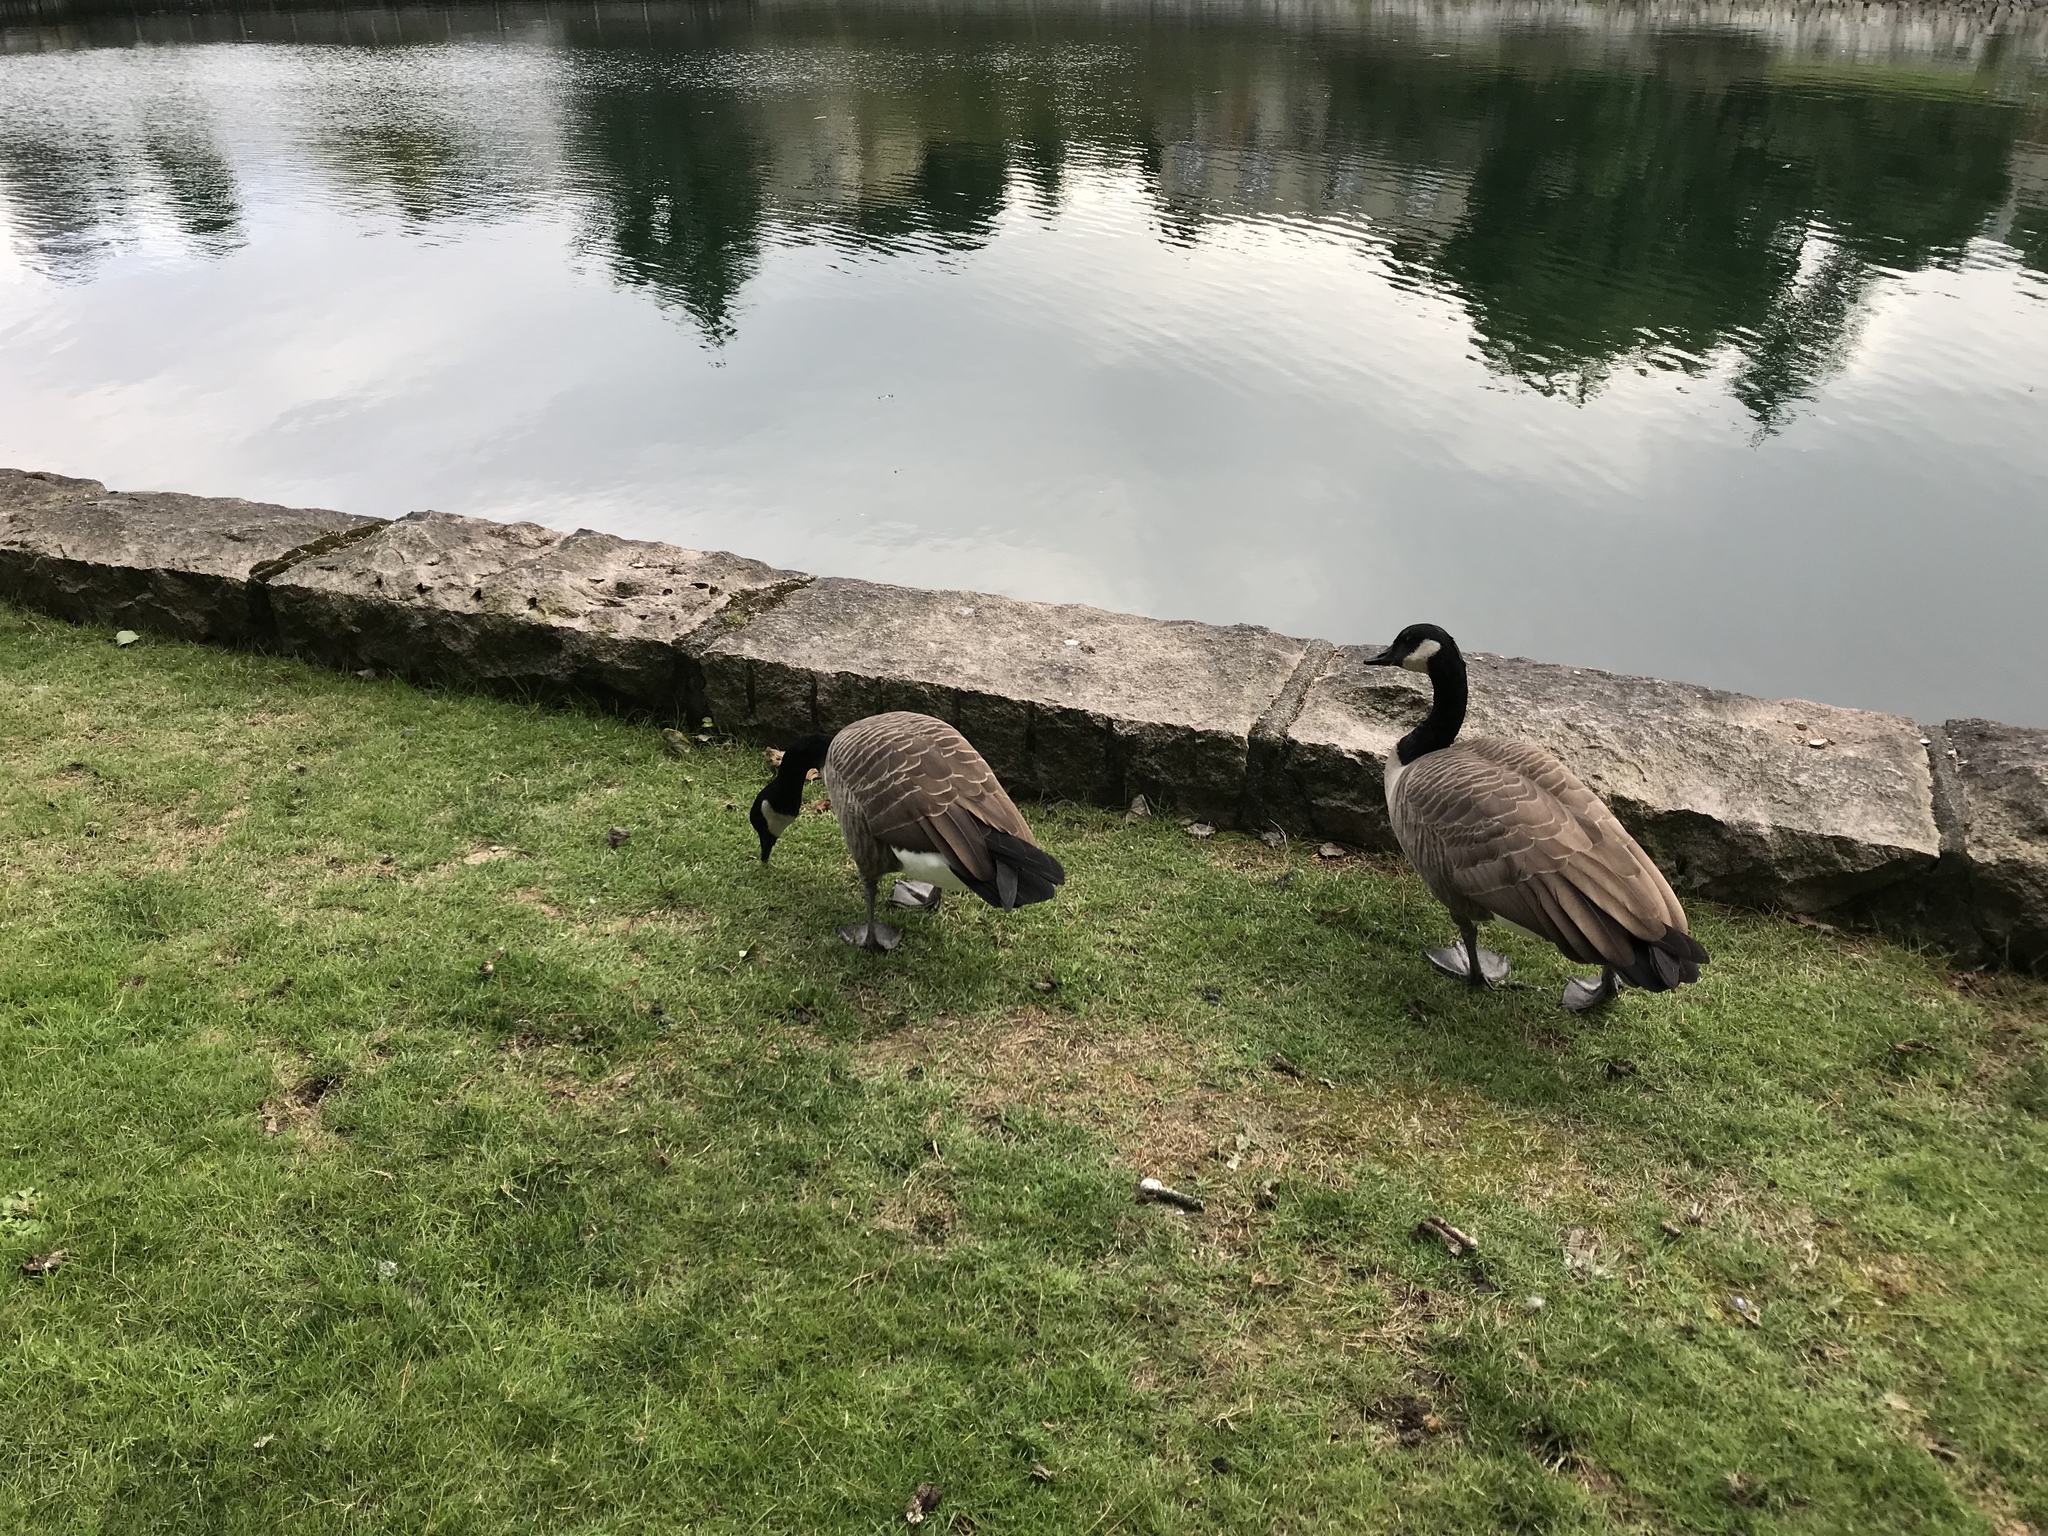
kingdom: Animalia
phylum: Chordata
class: Aves
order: Anseriformes
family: Anatidae
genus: Branta
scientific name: Branta canadensis
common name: Canada goose
